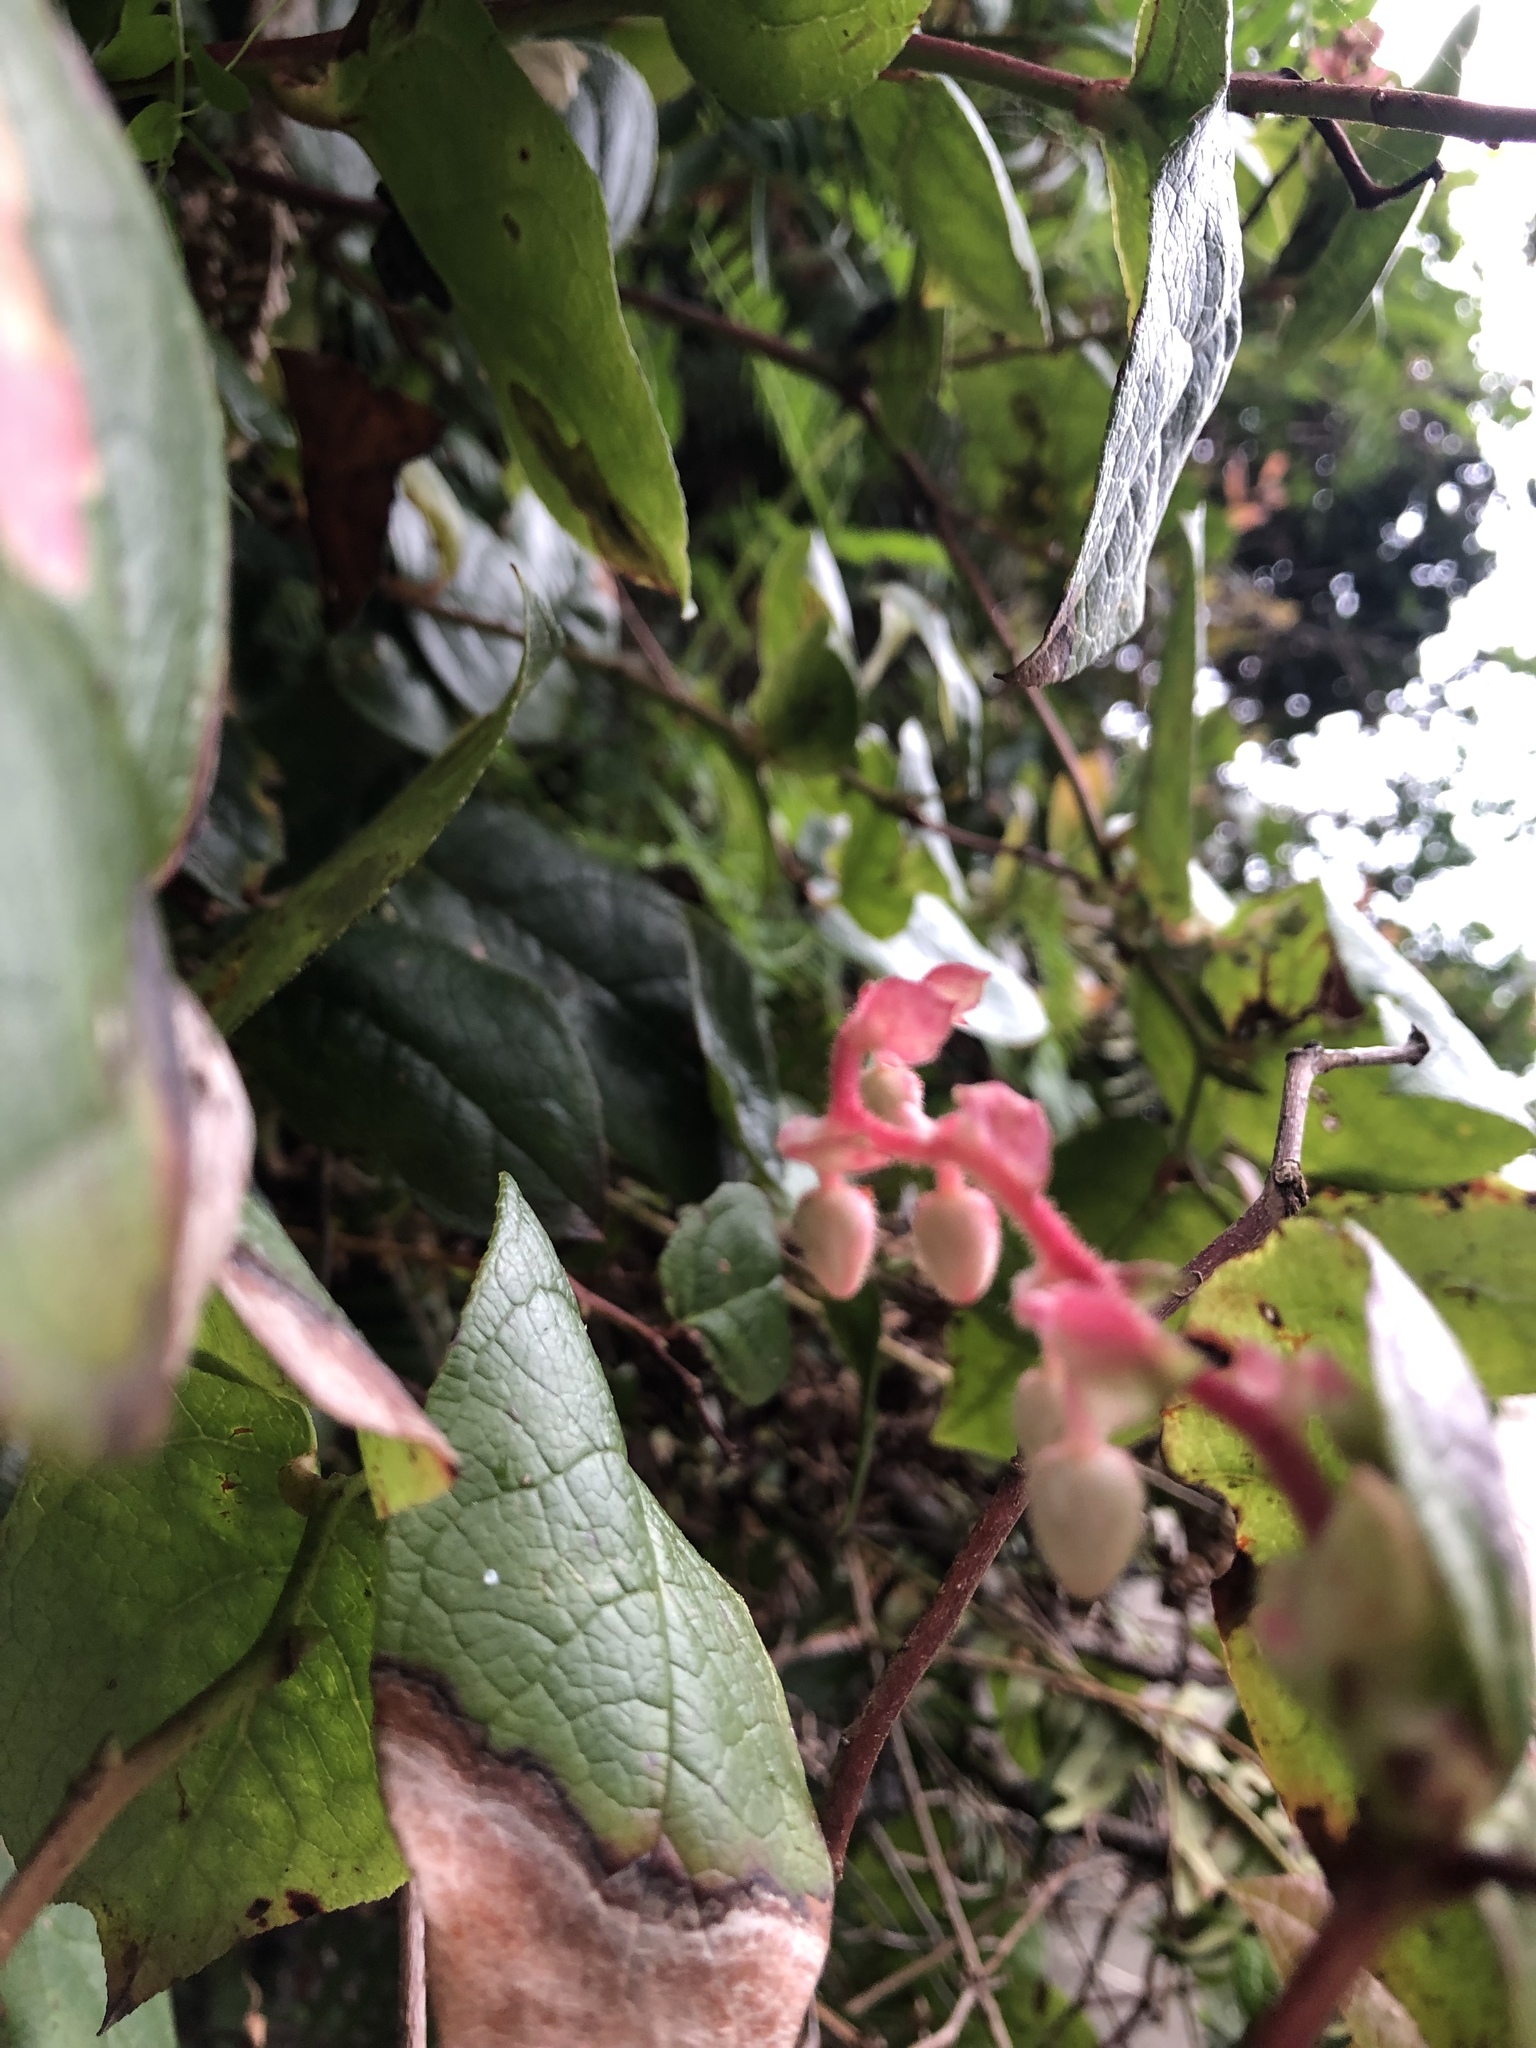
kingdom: Plantae
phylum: Tracheophyta
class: Magnoliopsida
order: Ericales
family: Ericaceae
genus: Gaultheria
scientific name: Gaultheria shallon
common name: Shallon
